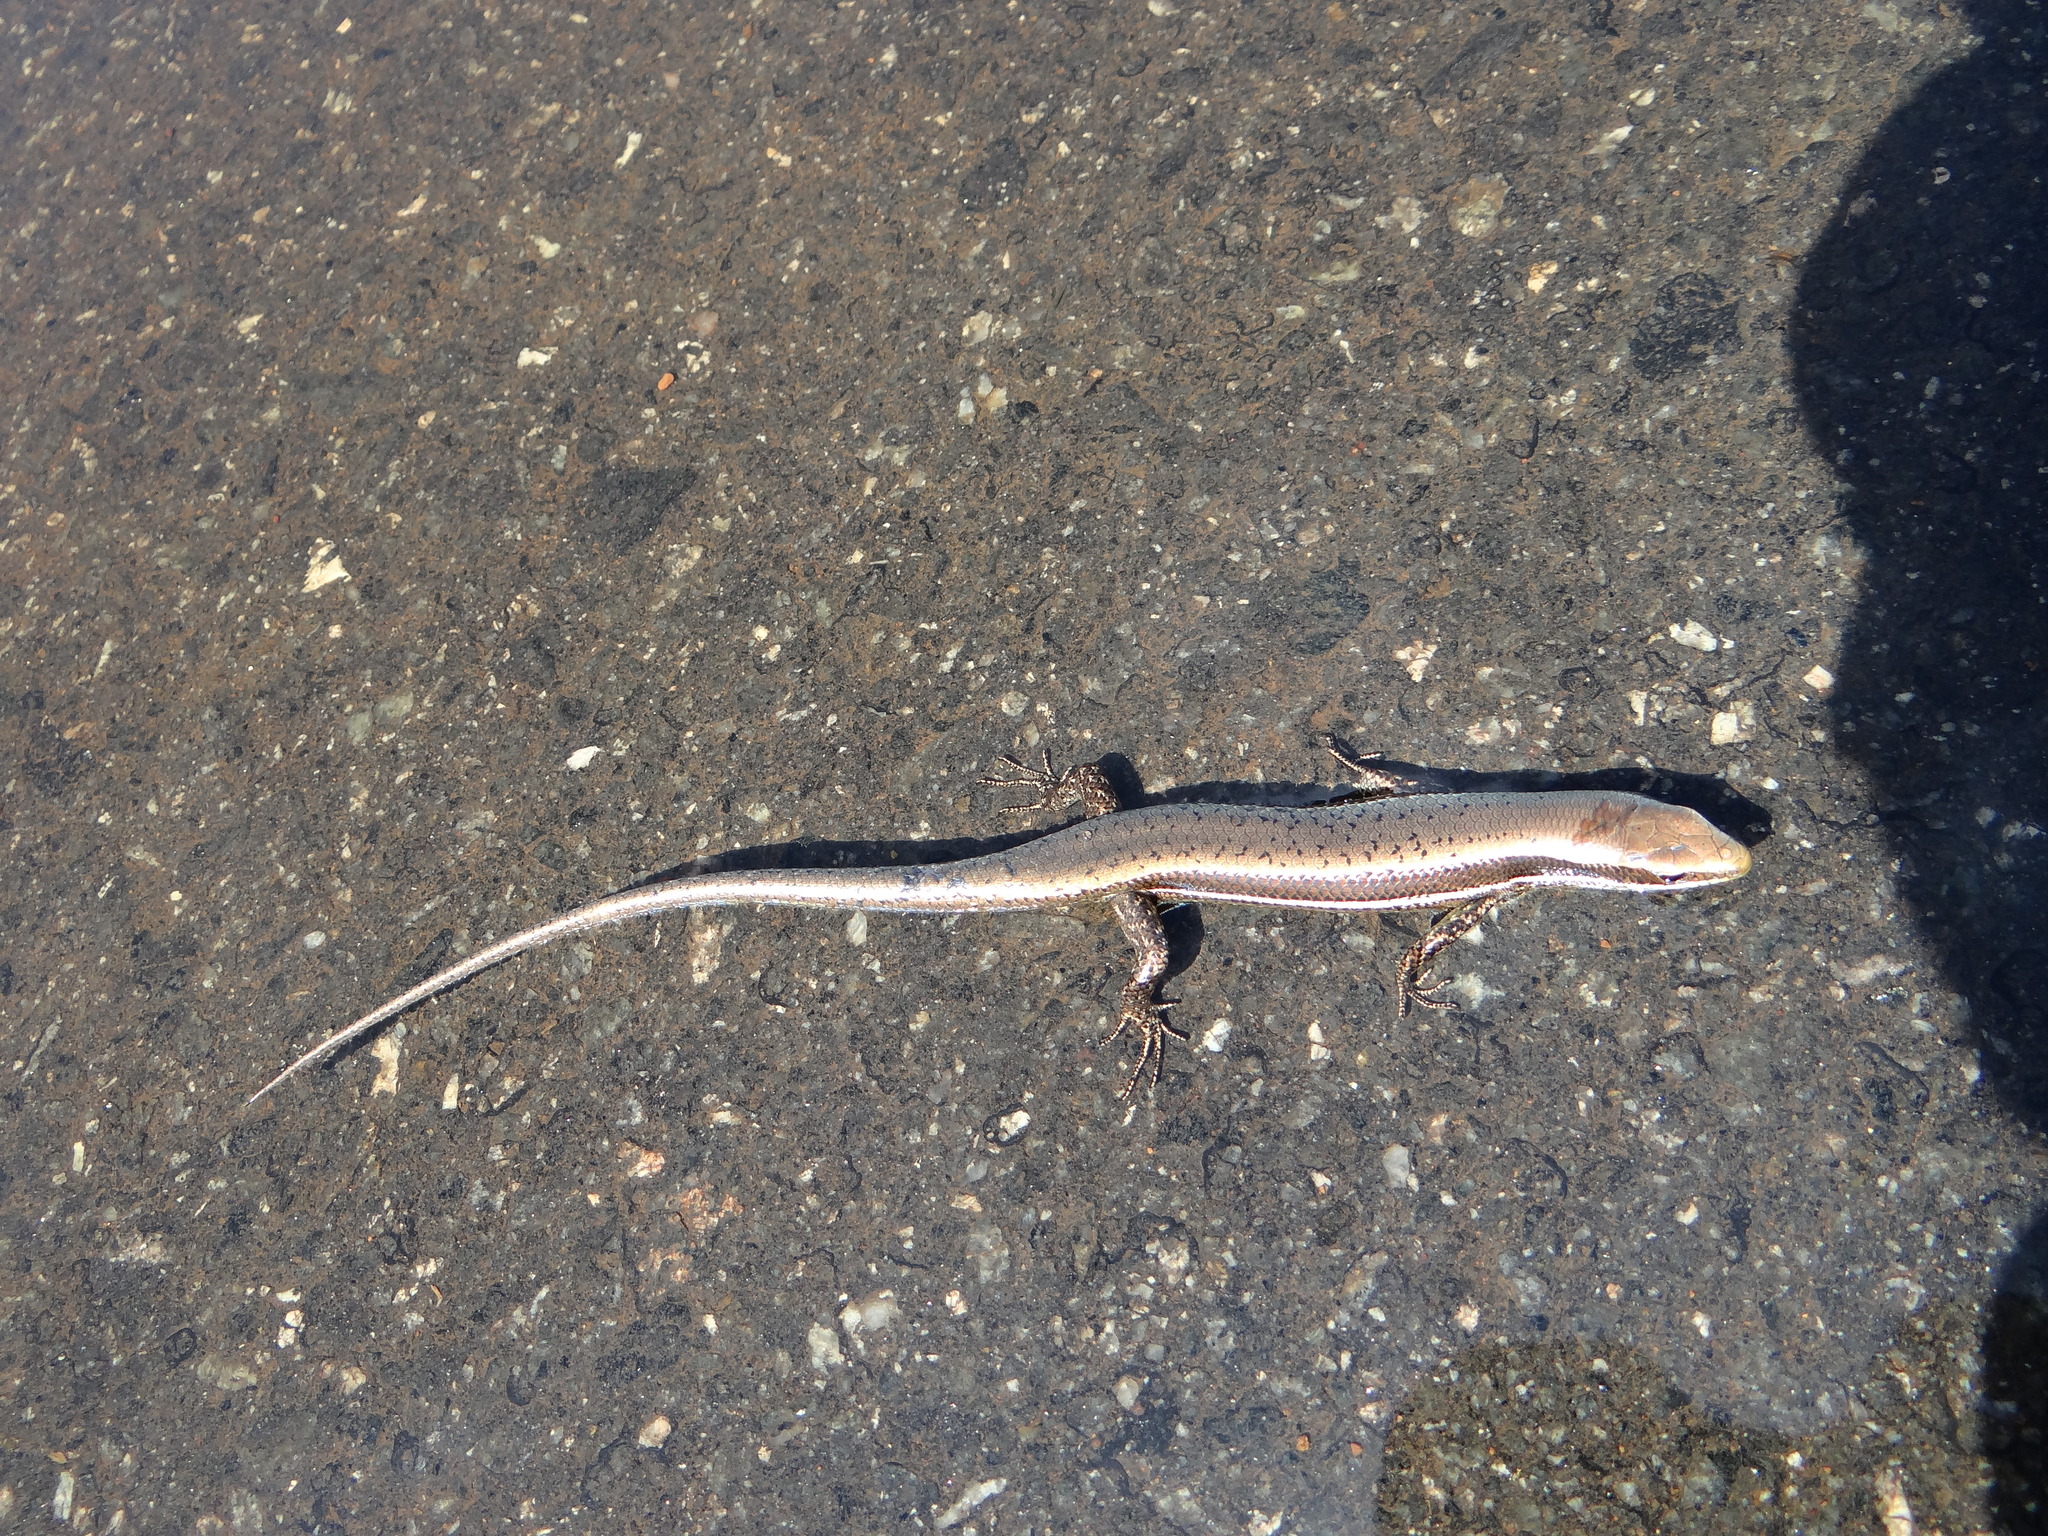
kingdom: Animalia
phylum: Chordata
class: Squamata
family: Scincidae
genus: Copeoglossum
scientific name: Copeoglossum nigropunctatum
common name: Black-spotted skink
